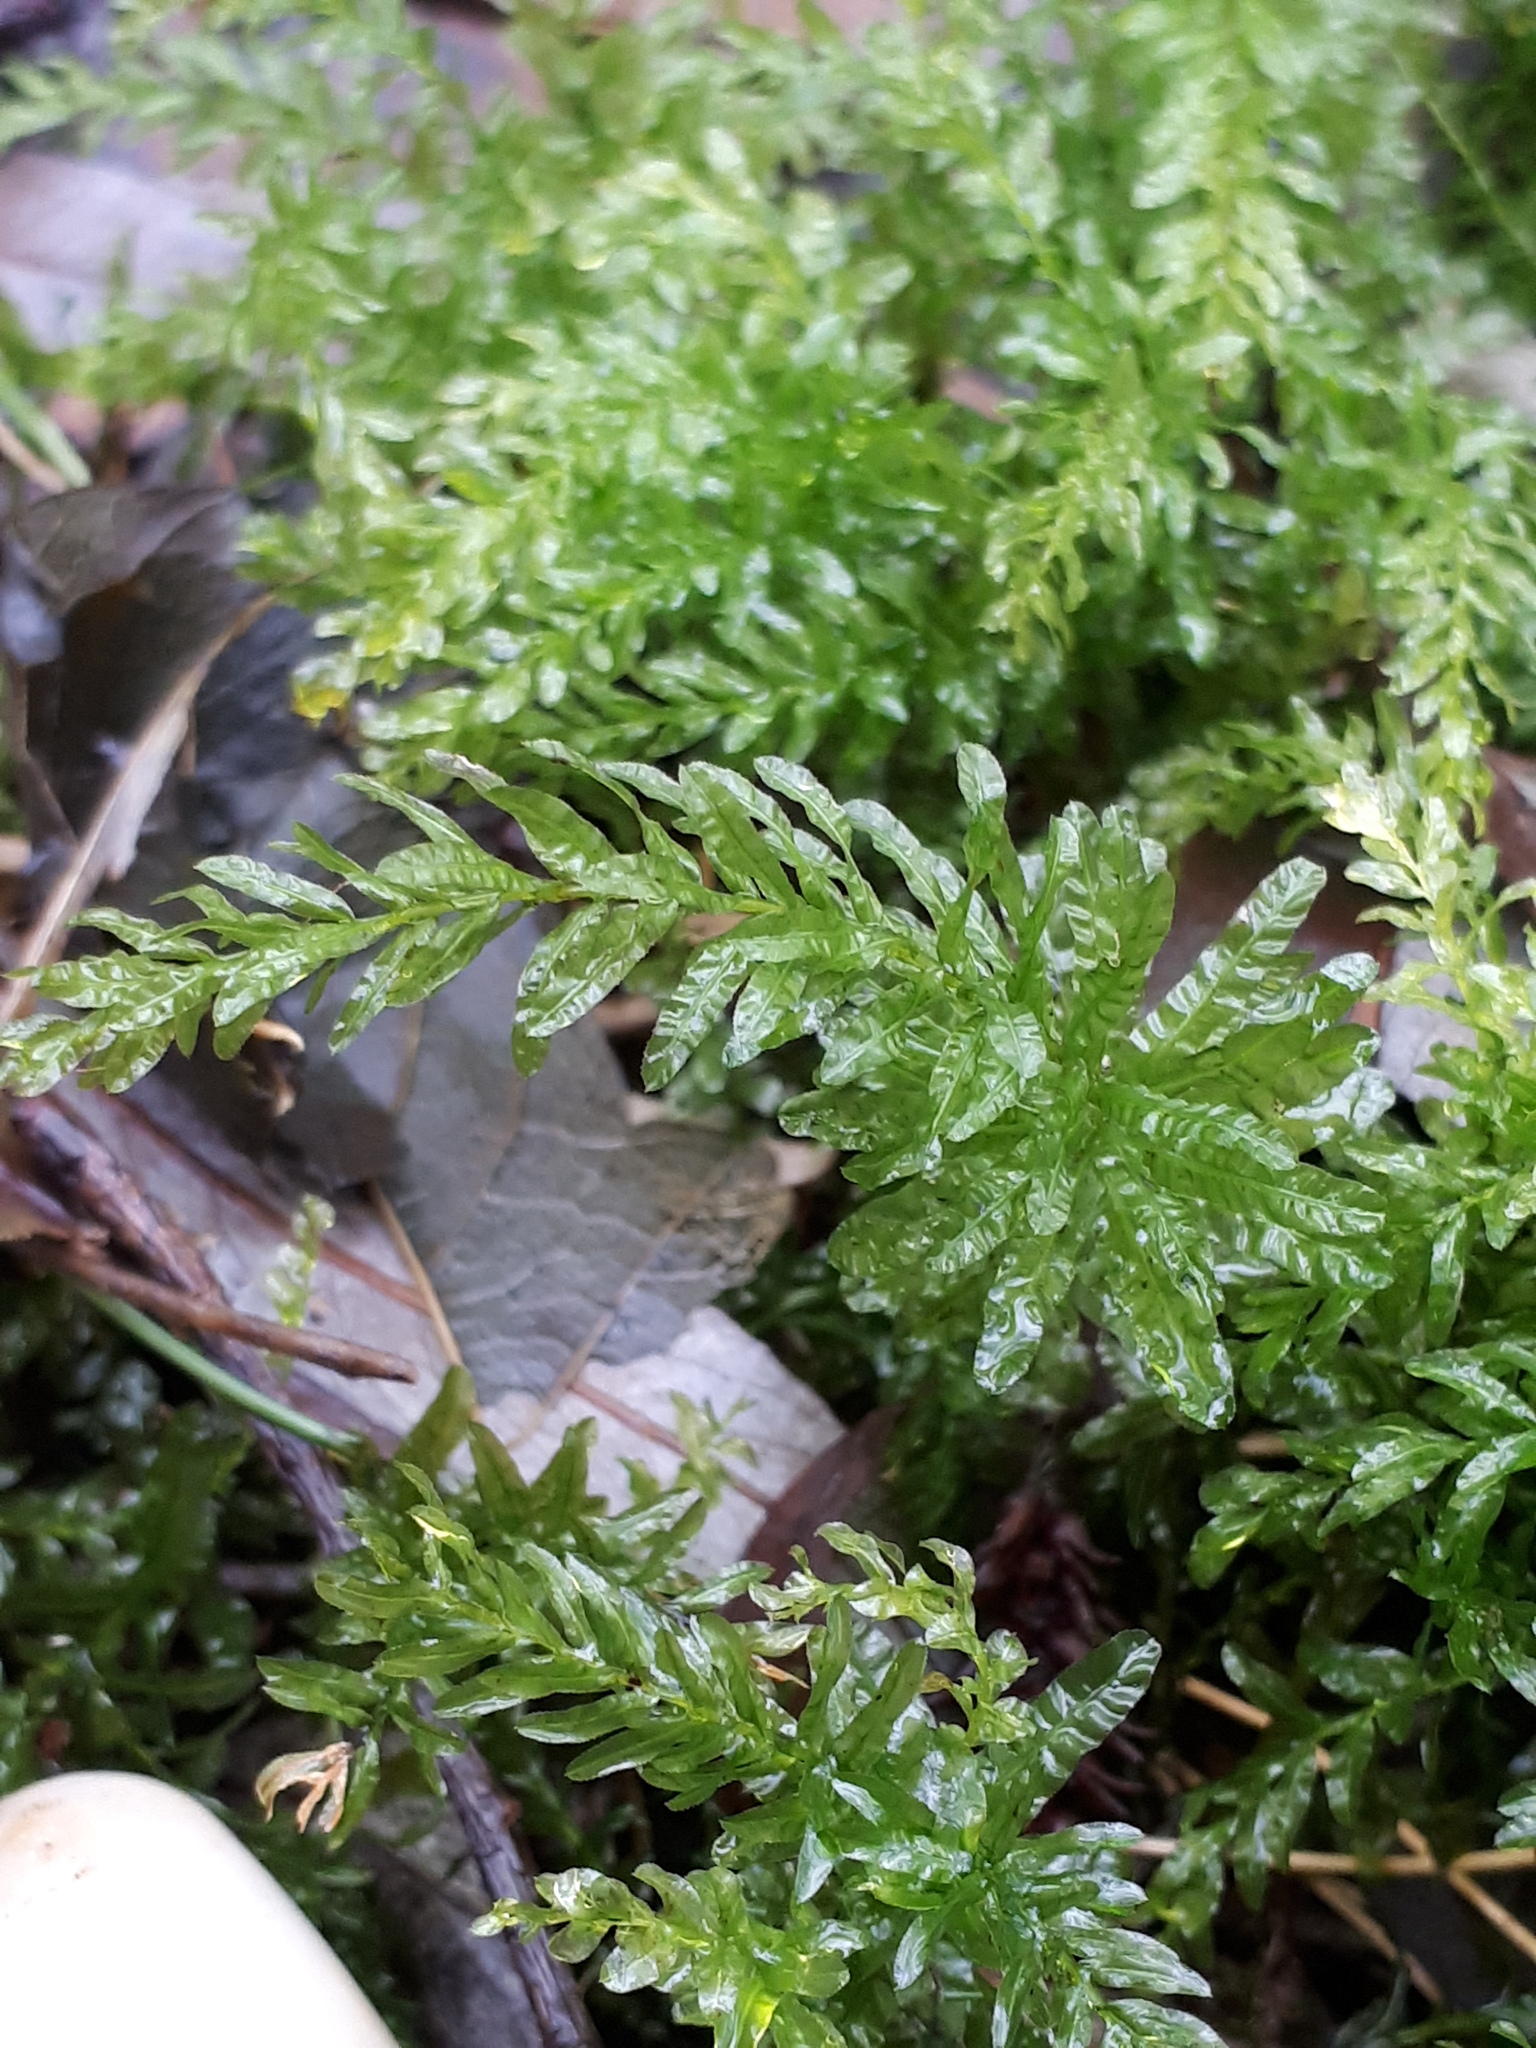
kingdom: Plantae
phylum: Bryophyta
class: Bryopsida
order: Bryales
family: Mniaceae
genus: Plagiomnium
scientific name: Plagiomnium undulatum
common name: Hart's-tongue thyme-moss
